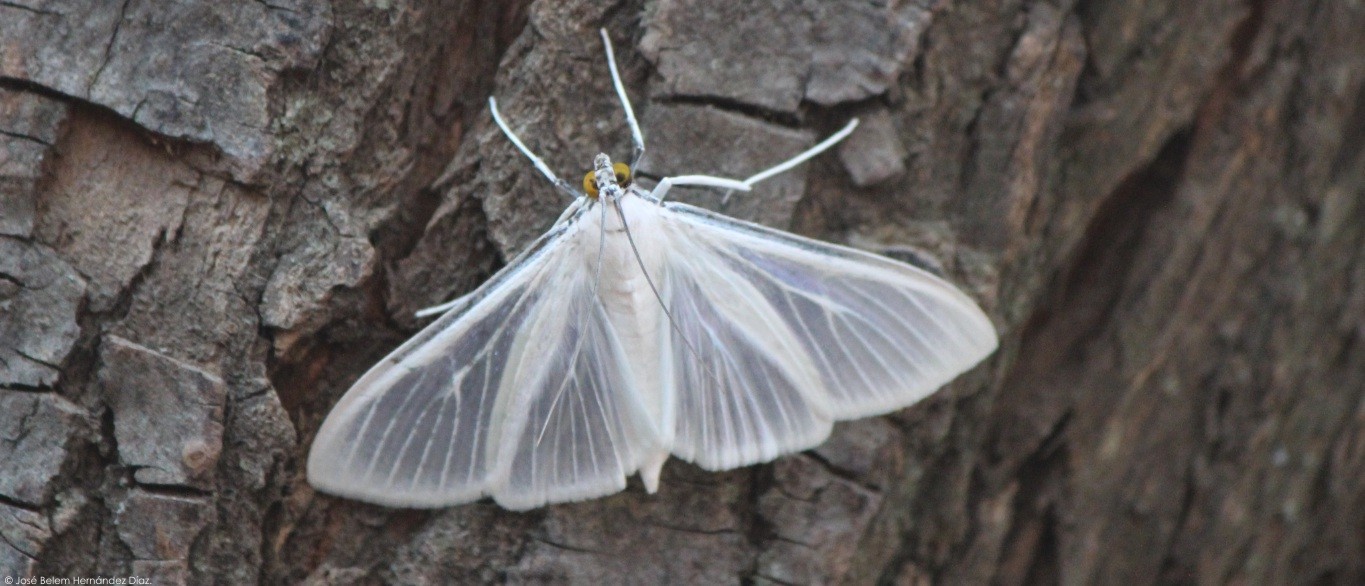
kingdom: Animalia
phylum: Arthropoda
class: Insecta
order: Lepidoptera
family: Crambidae
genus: Palpita
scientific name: Palpita flegia
